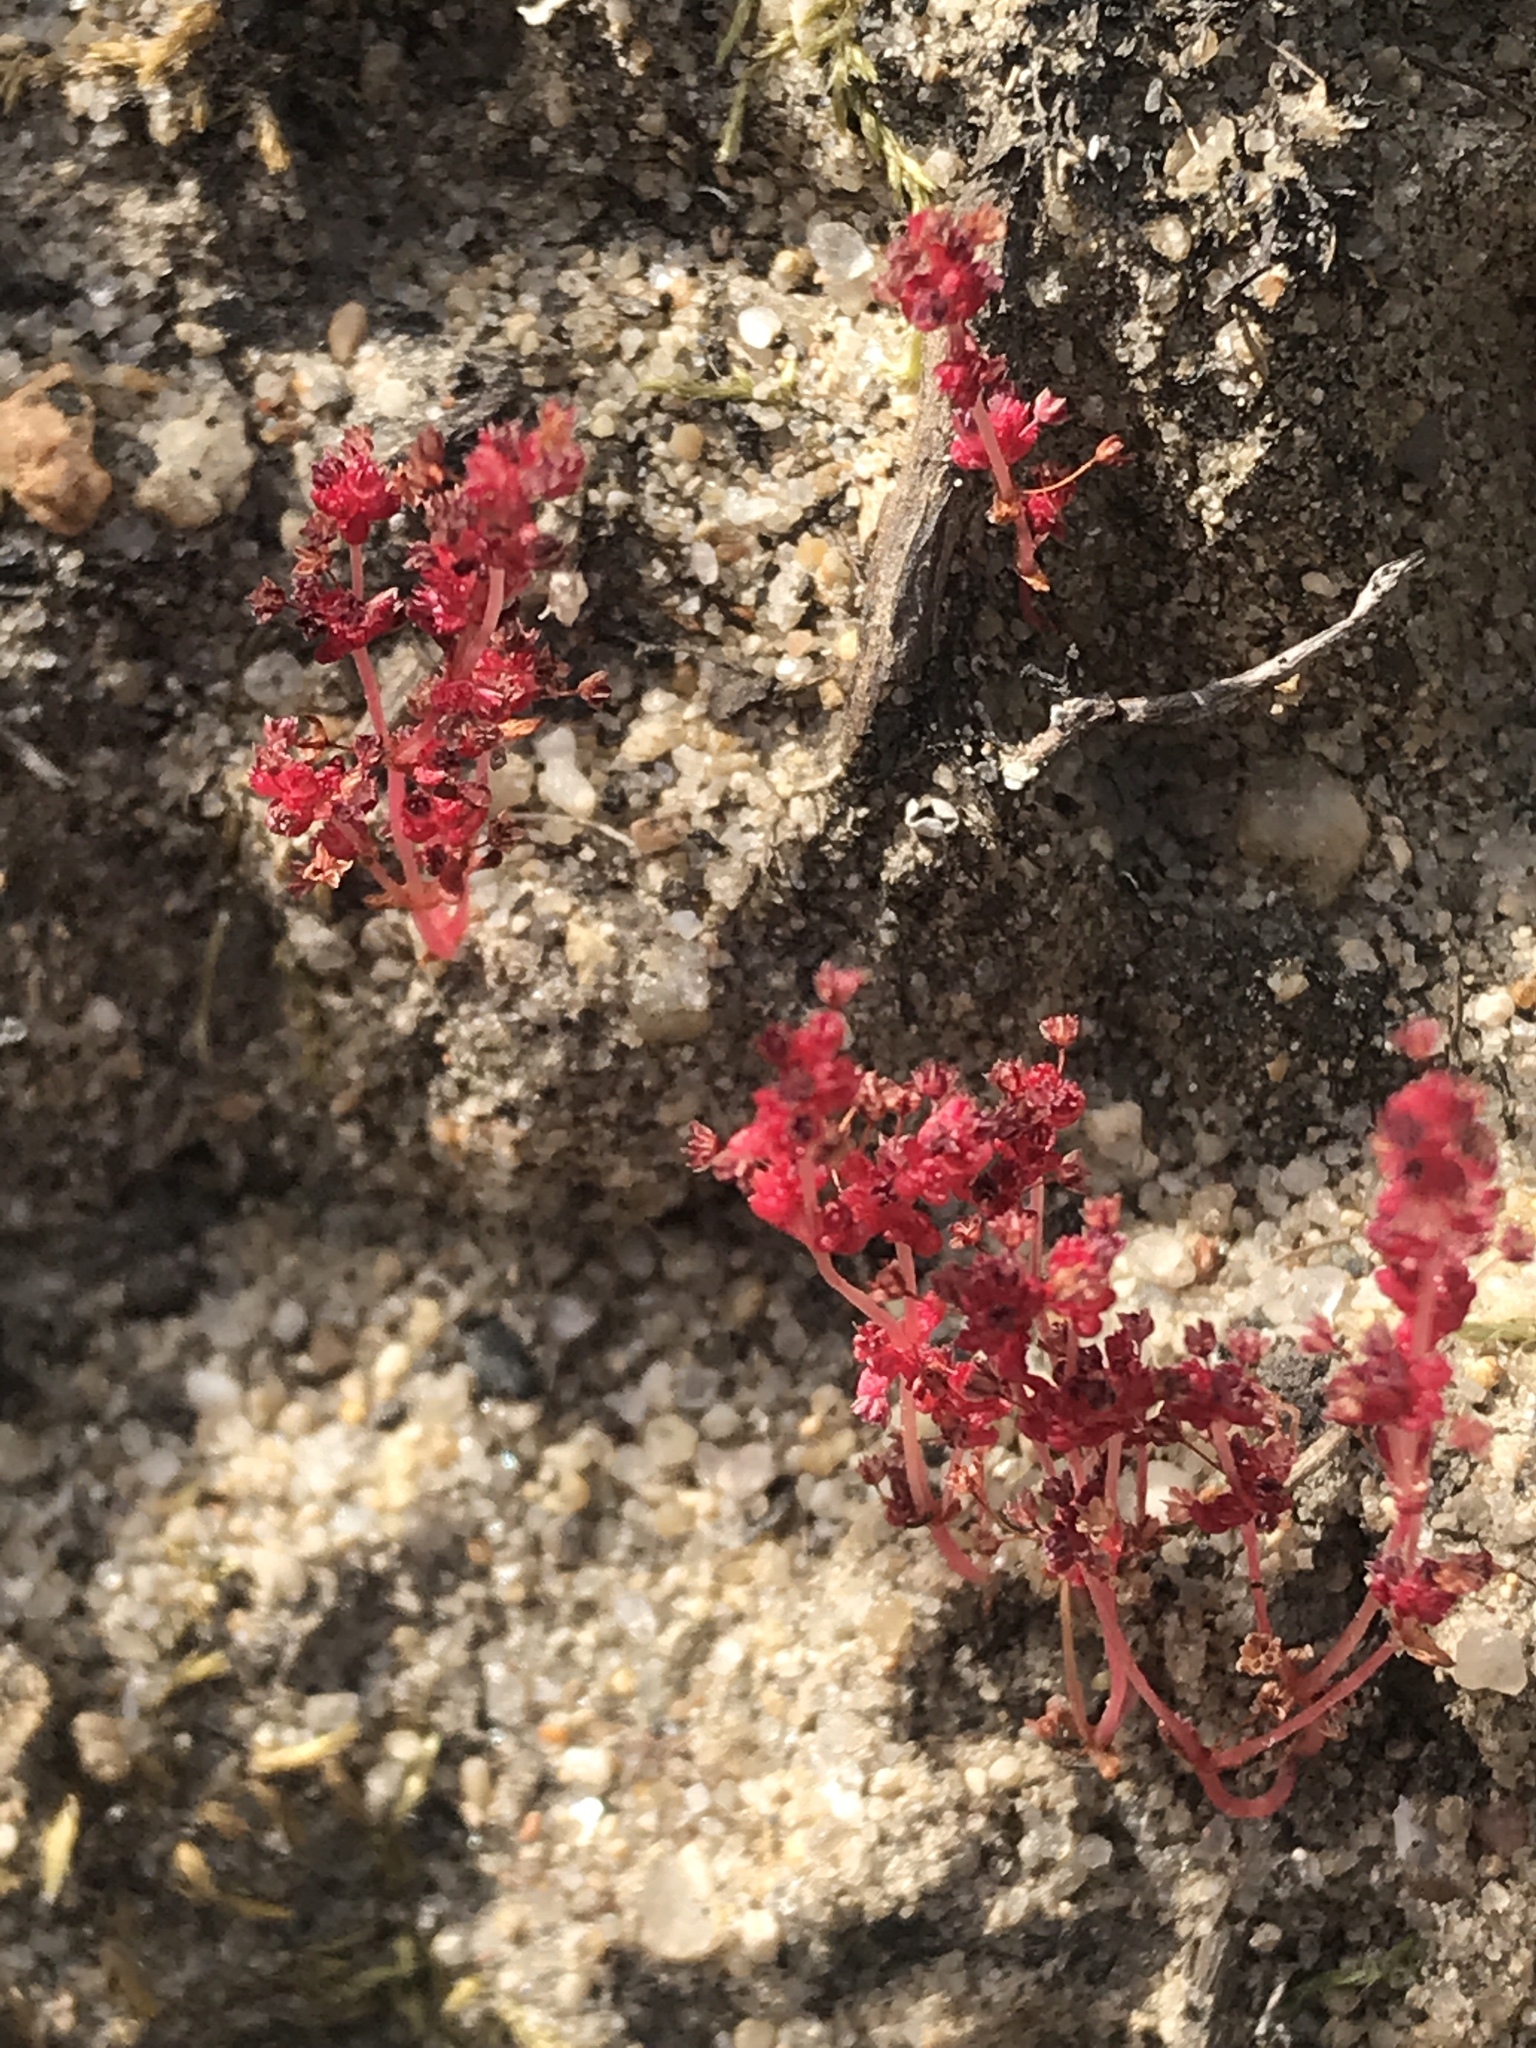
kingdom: Plantae
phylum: Tracheophyta
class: Magnoliopsida
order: Saxifragales
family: Crassulaceae
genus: Crassula
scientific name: Crassula connata
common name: Erect pygmyweed
